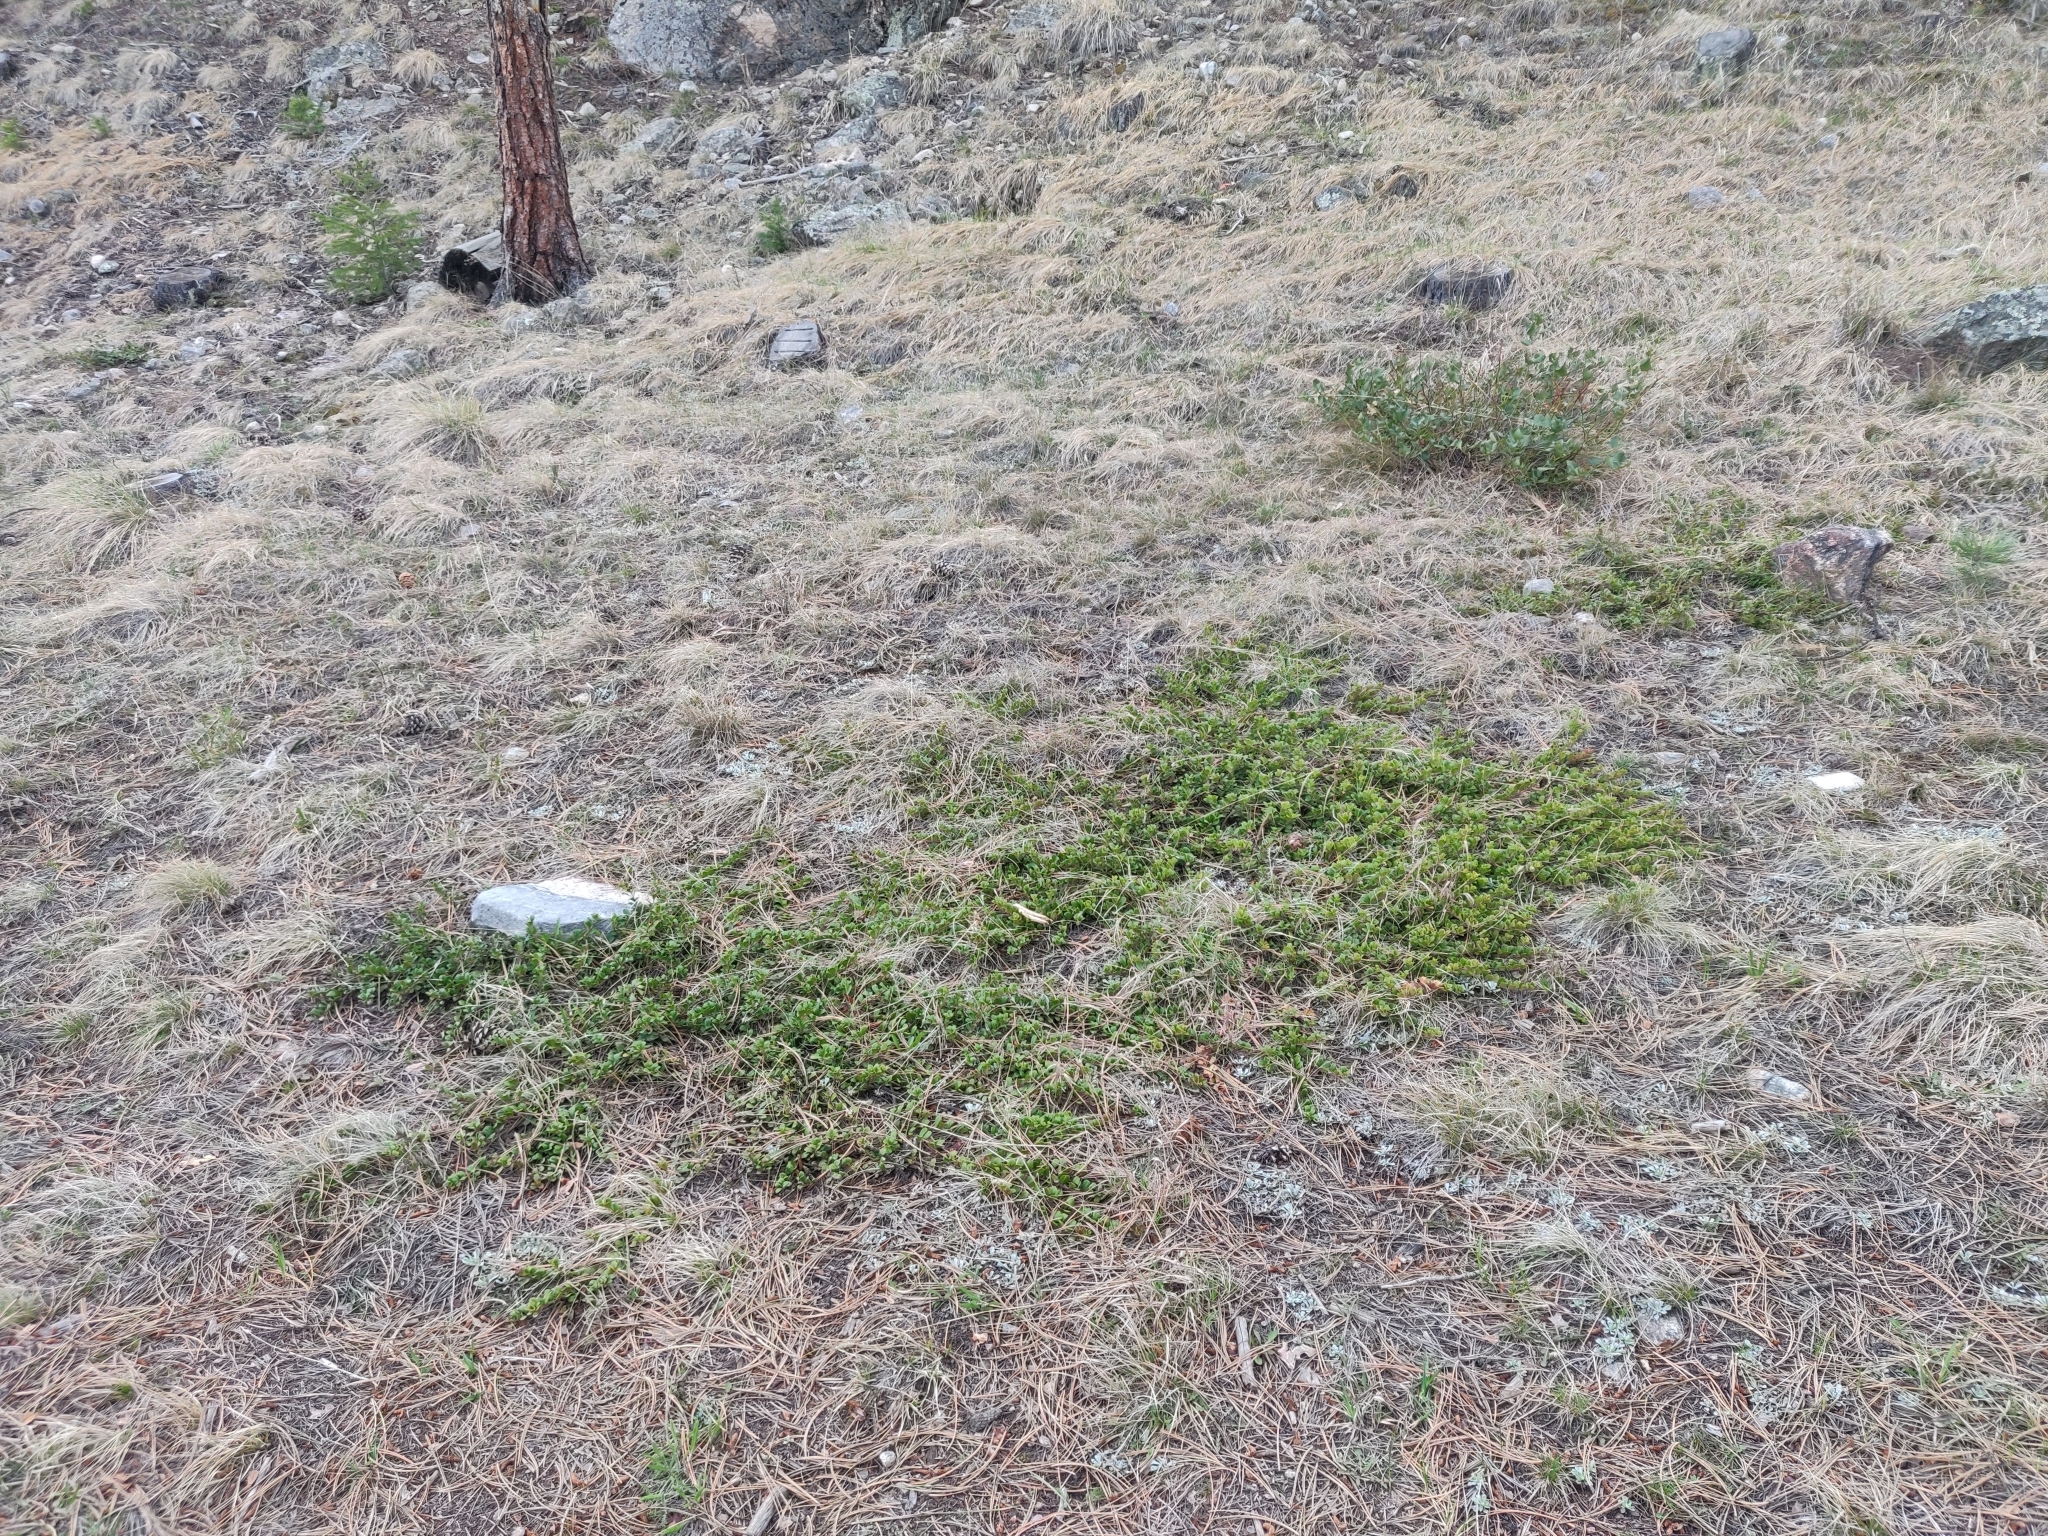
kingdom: Plantae
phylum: Tracheophyta
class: Magnoliopsida
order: Ericales
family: Ericaceae
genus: Arctostaphylos
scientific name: Arctostaphylos uva-ursi
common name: Bearberry
